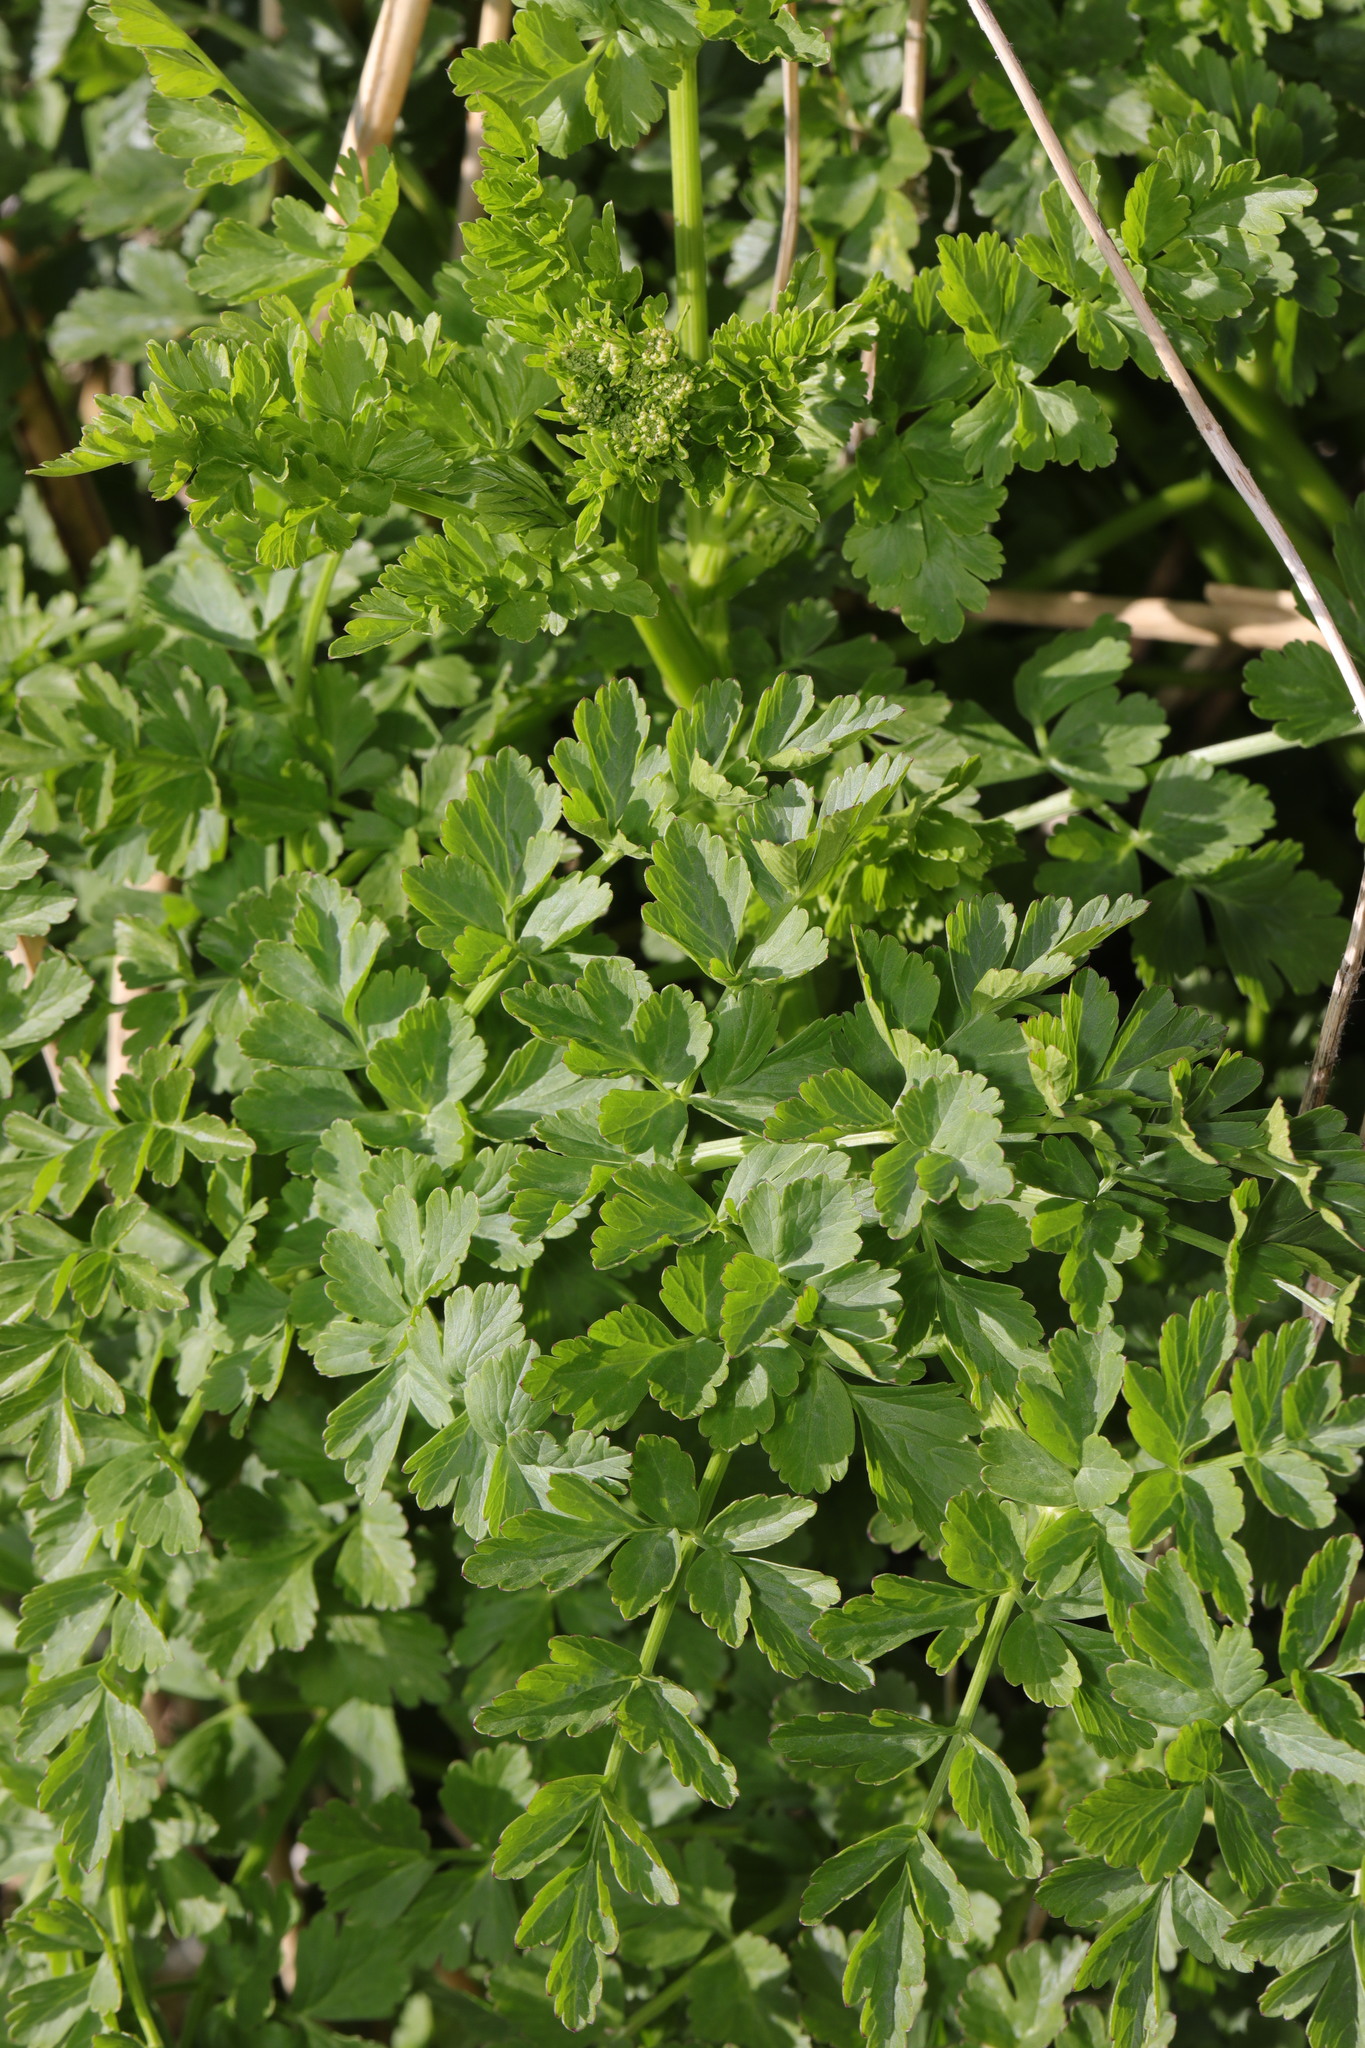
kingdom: Plantae
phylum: Tracheophyta
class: Magnoliopsida
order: Apiales
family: Apiaceae
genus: Oenanthe
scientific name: Oenanthe crocata
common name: Hemlock water-dropwort
